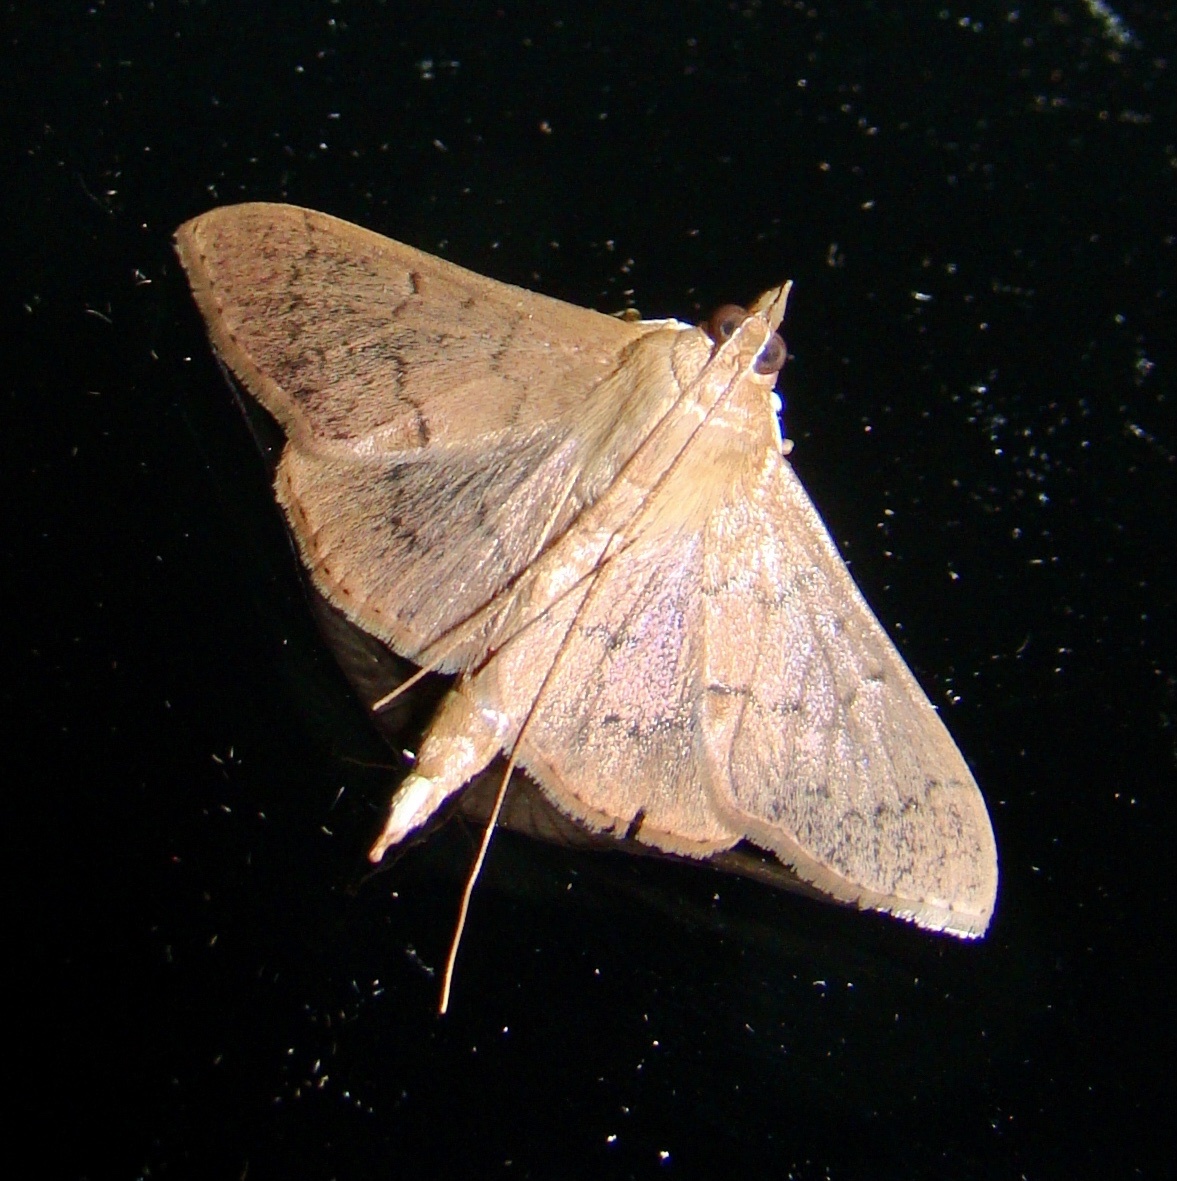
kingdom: Animalia
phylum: Arthropoda
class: Insecta
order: Lepidoptera
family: Crambidae
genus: Patania
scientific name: Patania
